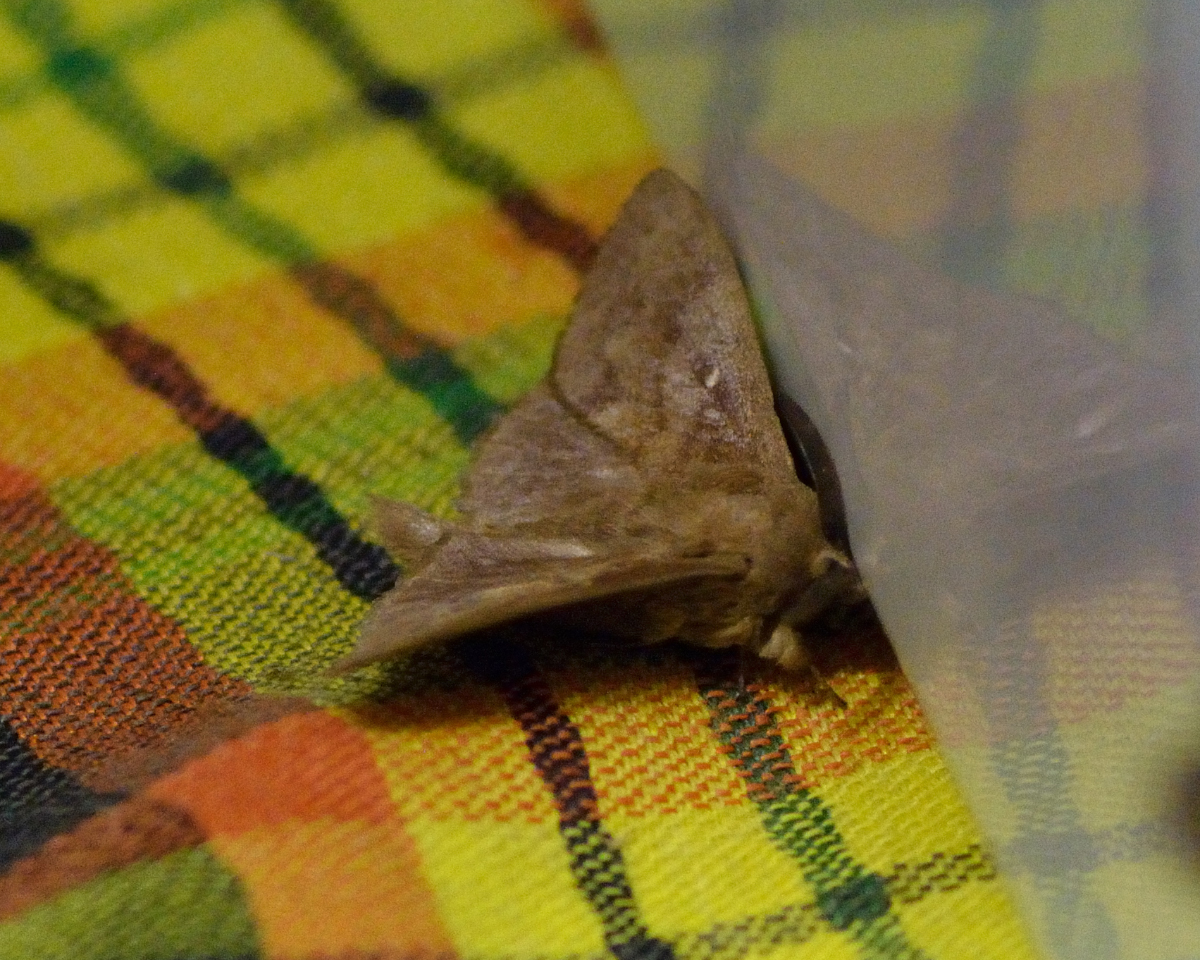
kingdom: Animalia
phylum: Arthropoda
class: Insecta
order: Lepidoptera
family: Lasiocampidae
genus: Dendrolimus
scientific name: Dendrolimus pini
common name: Pine-tree lappet
